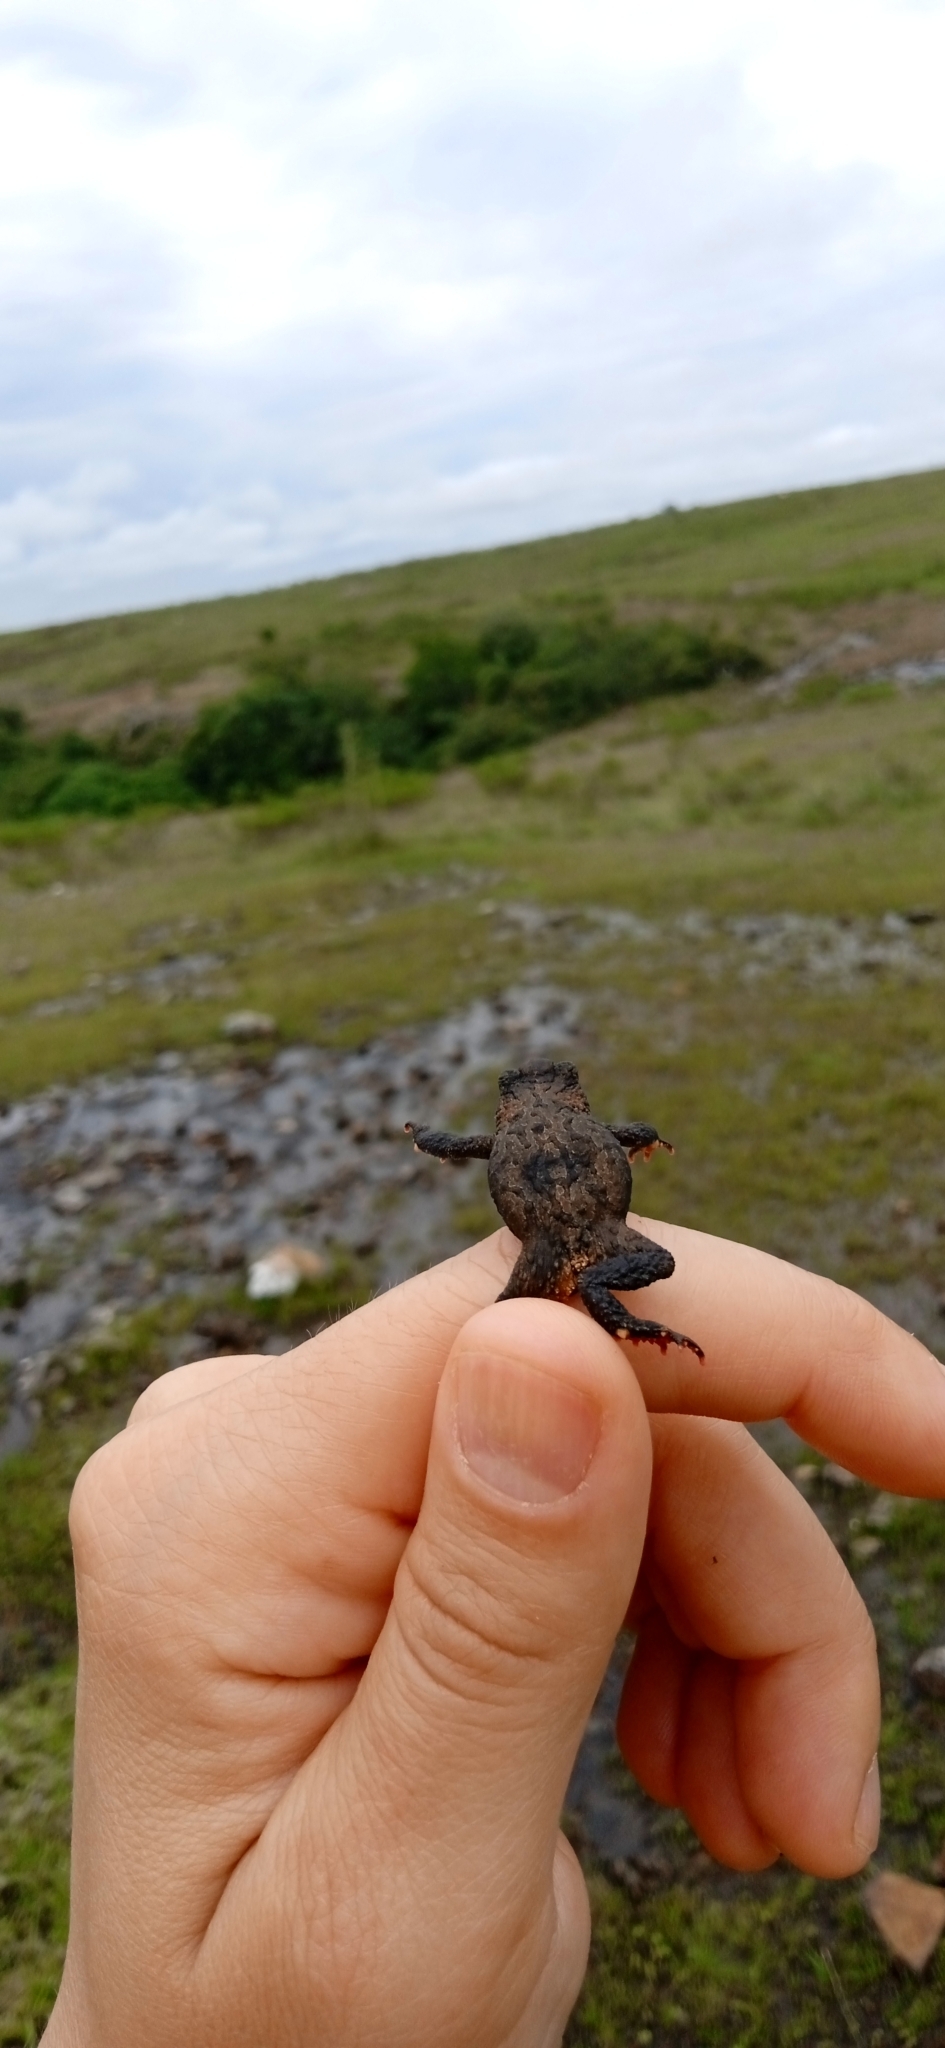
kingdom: Animalia
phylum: Chordata
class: Amphibia
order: Anura
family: Bufonidae
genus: Melanophryniscus
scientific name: Melanophryniscus devincenzii
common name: Rivera redbelly toad
